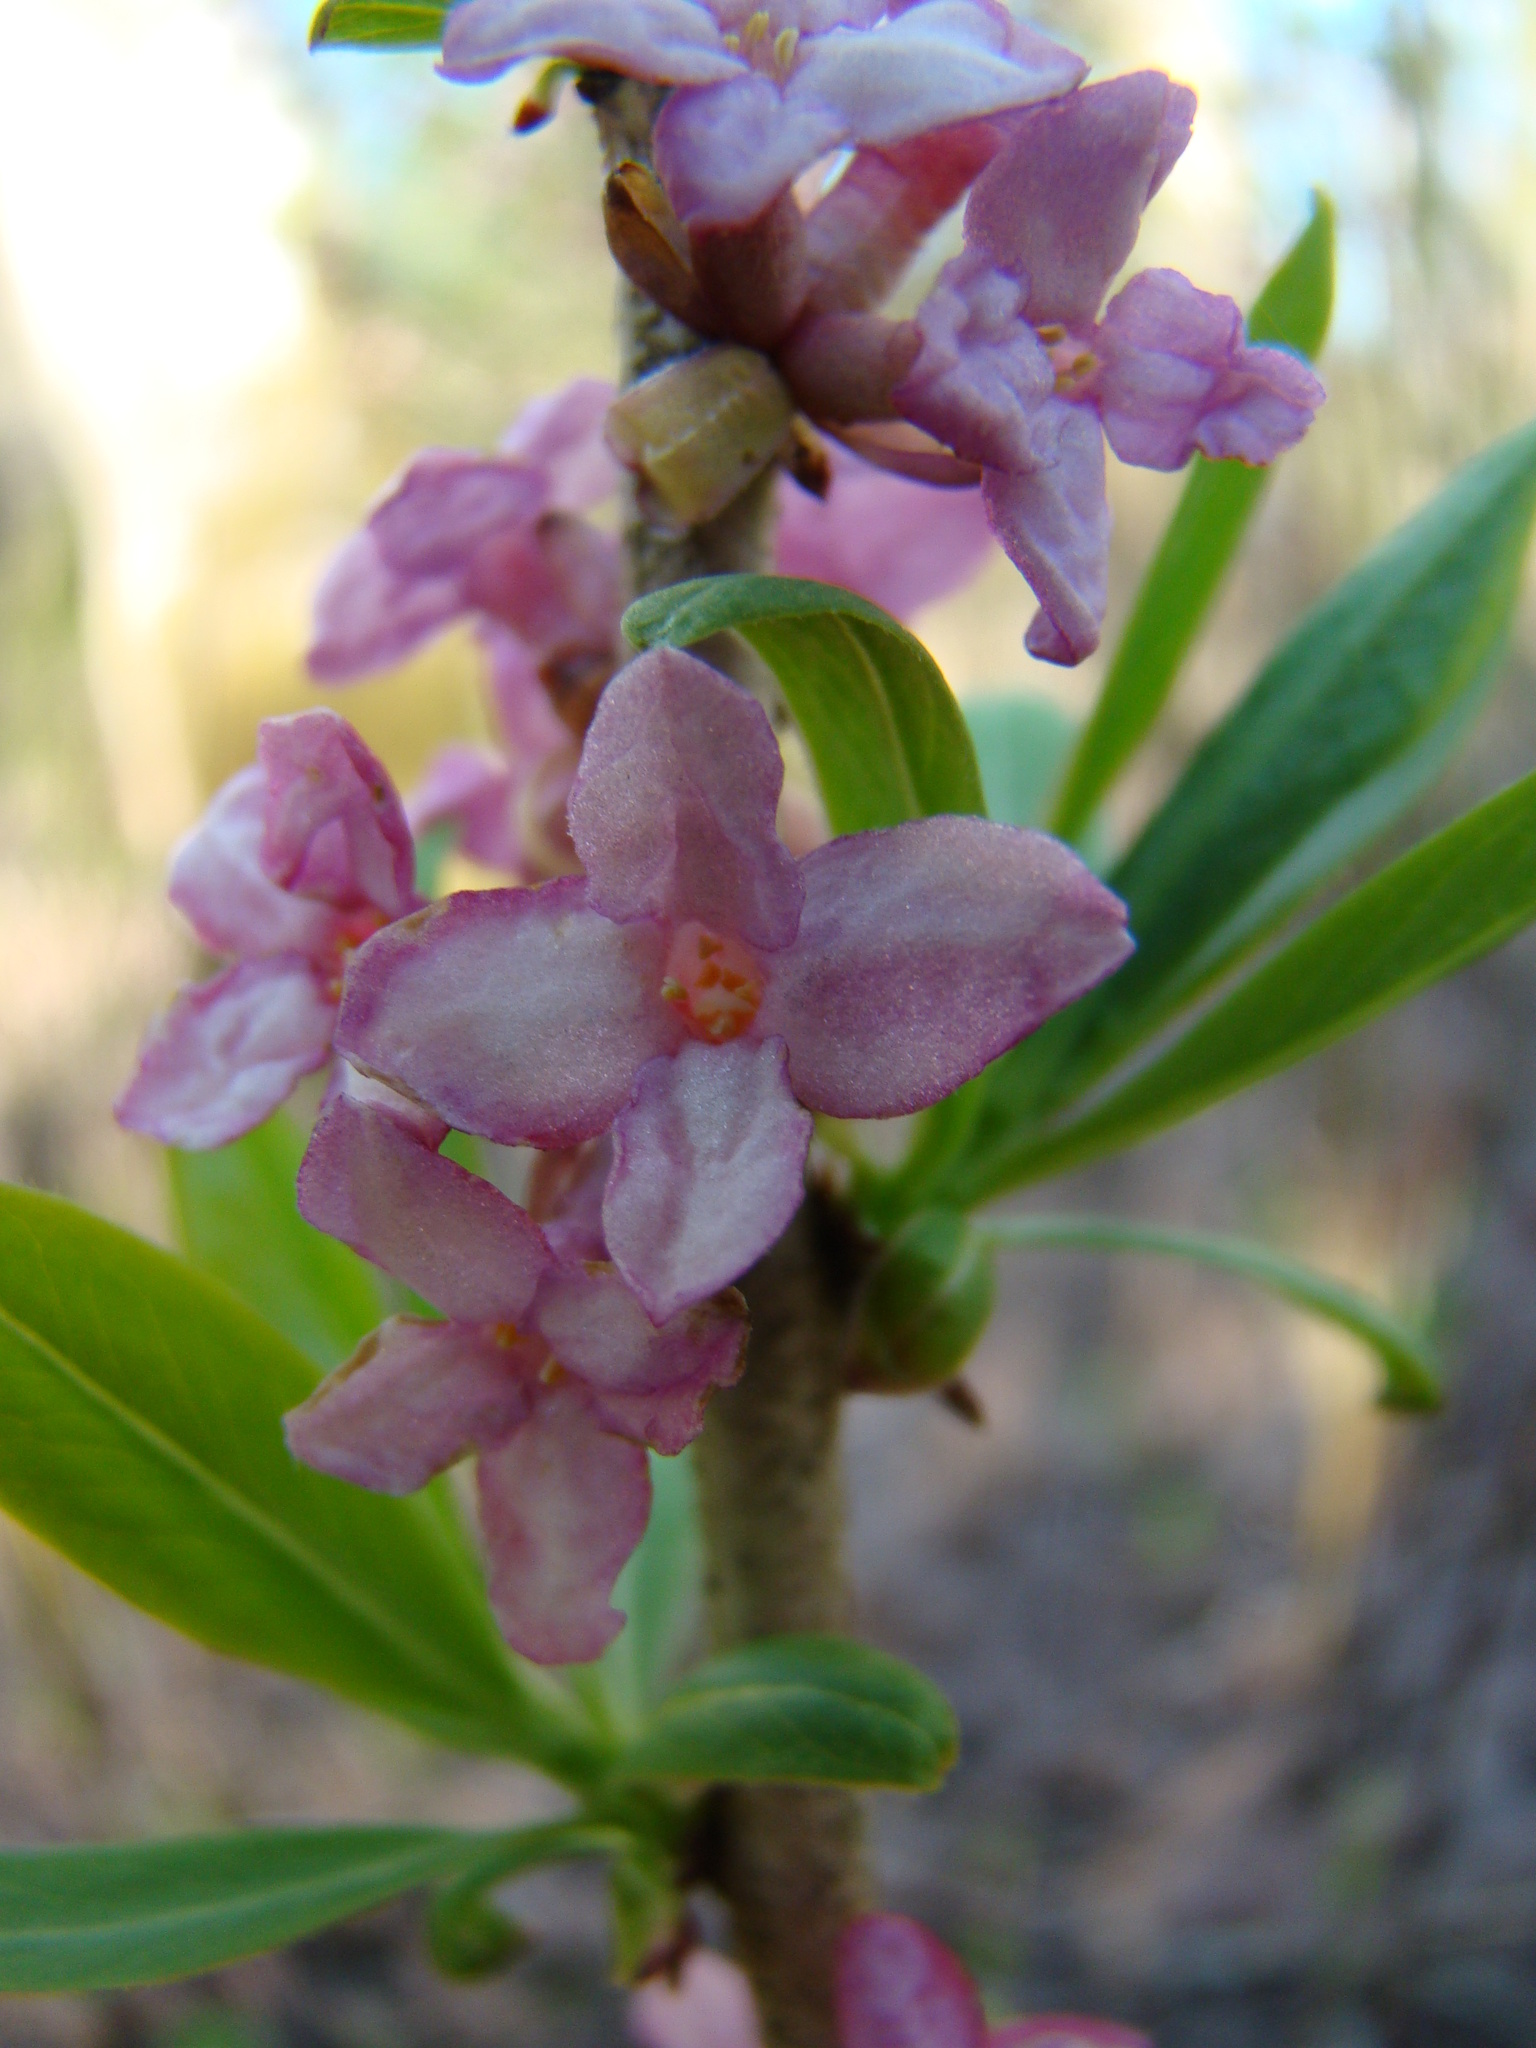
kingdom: Plantae
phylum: Tracheophyta
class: Magnoliopsida
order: Malvales
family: Thymelaeaceae
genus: Daphne
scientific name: Daphne mezereum
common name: Mezereon
